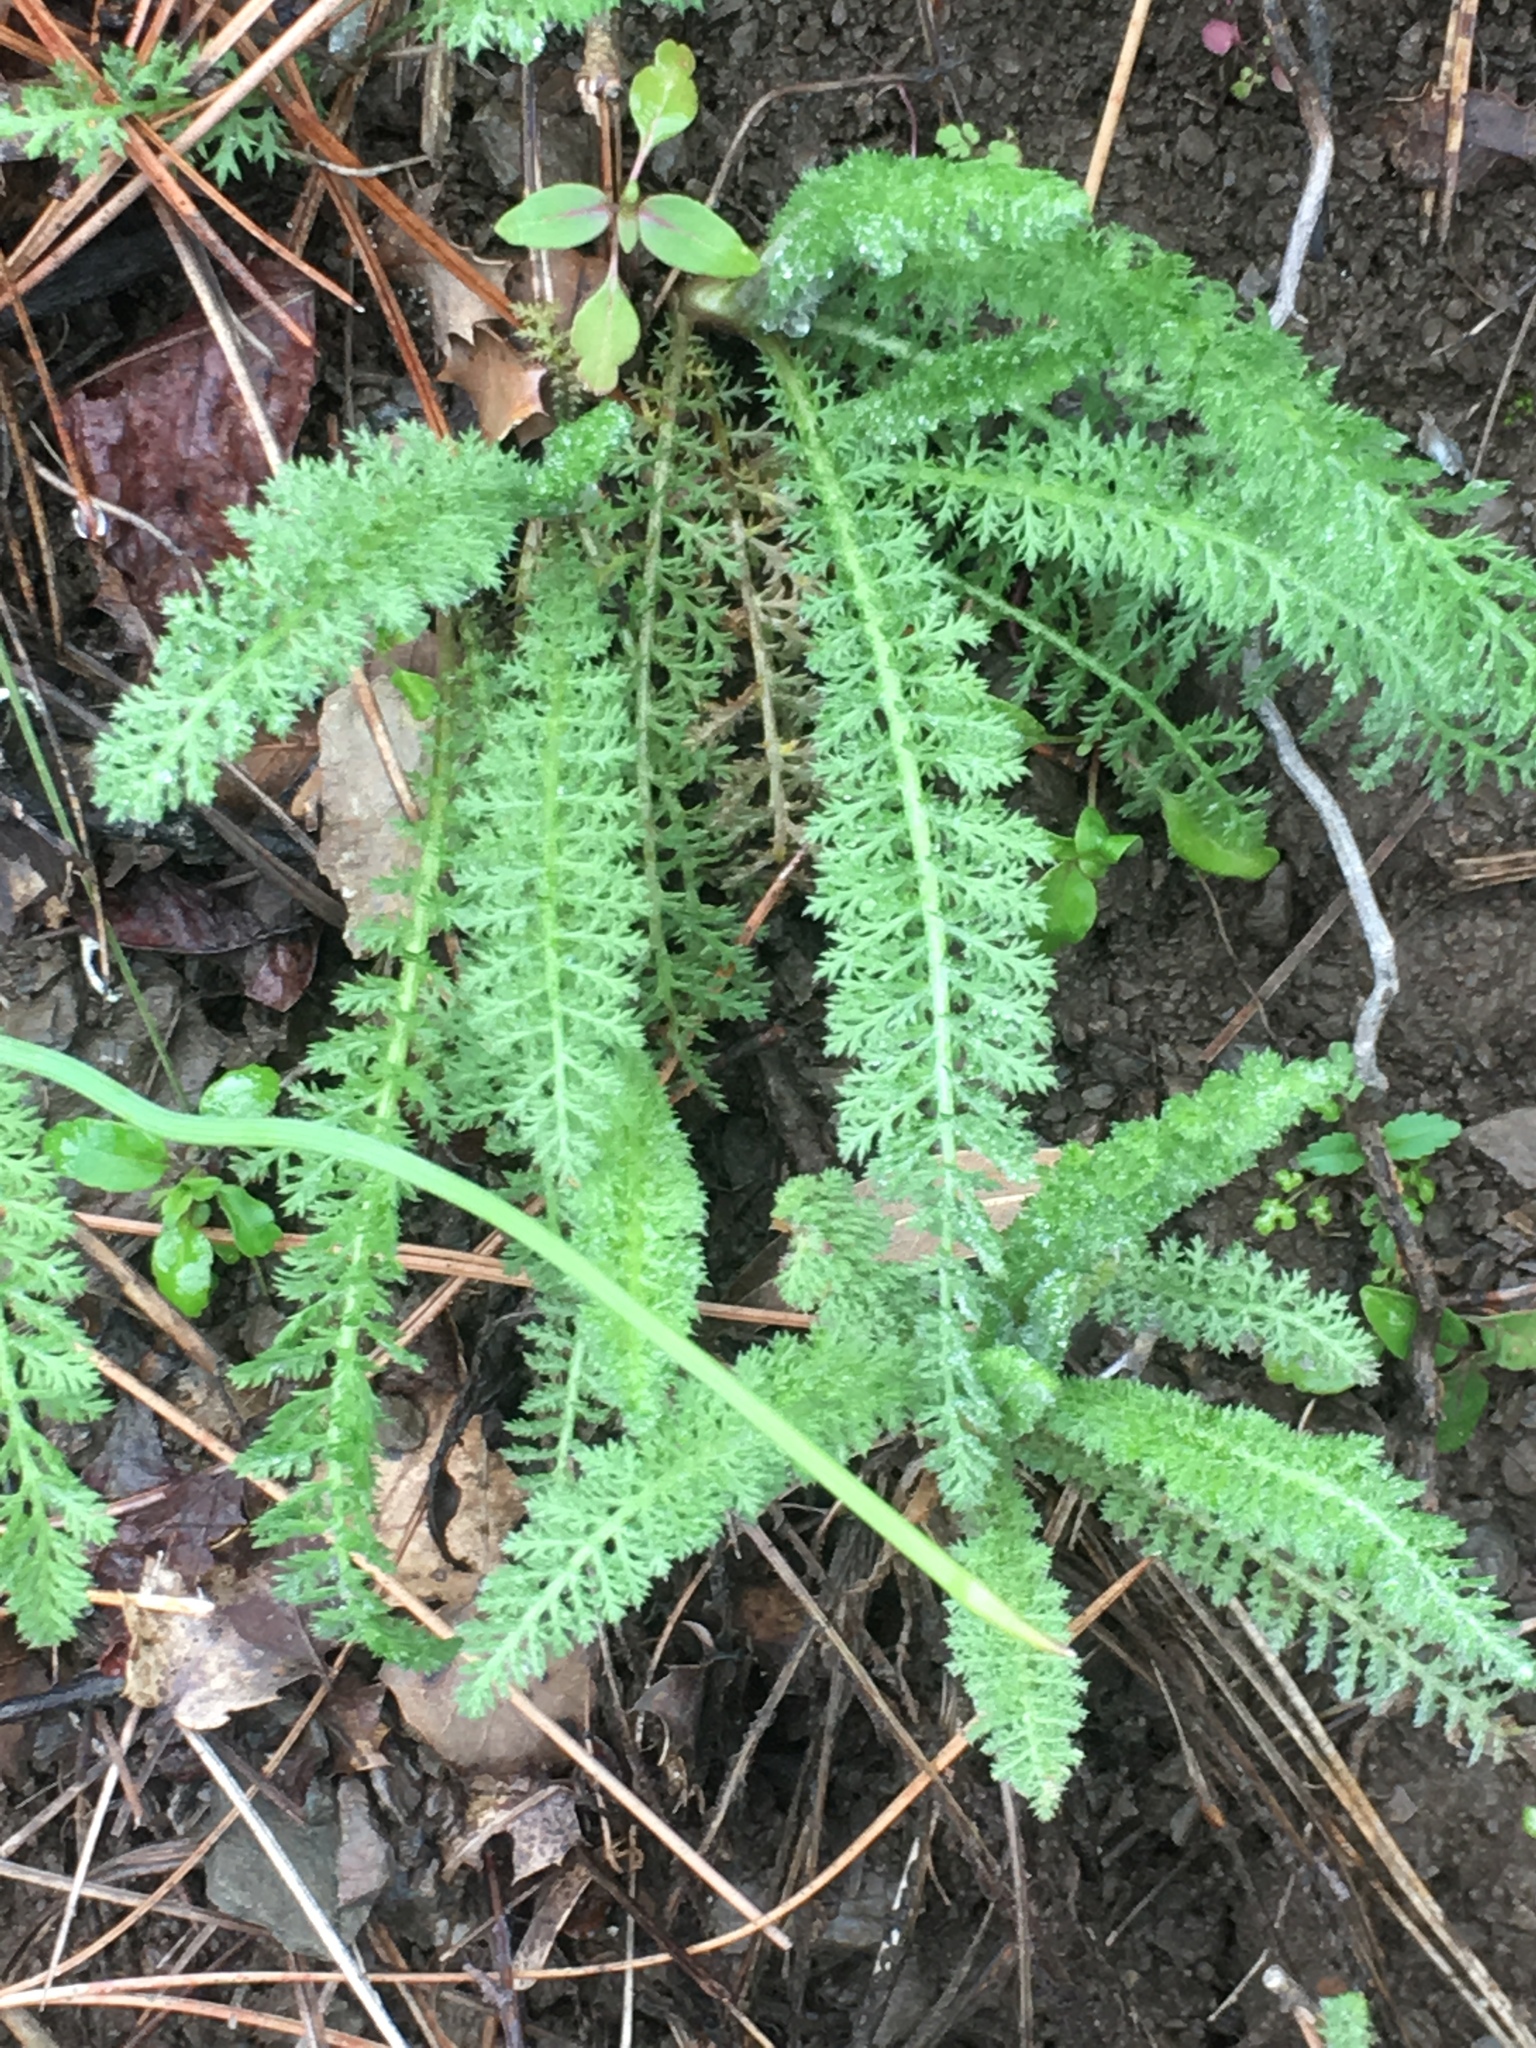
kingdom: Plantae
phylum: Tracheophyta
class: Magnoliopsida
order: Asterales
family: Asteraceae
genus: Achillea
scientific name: Achillea millefolium
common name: Yarrow
